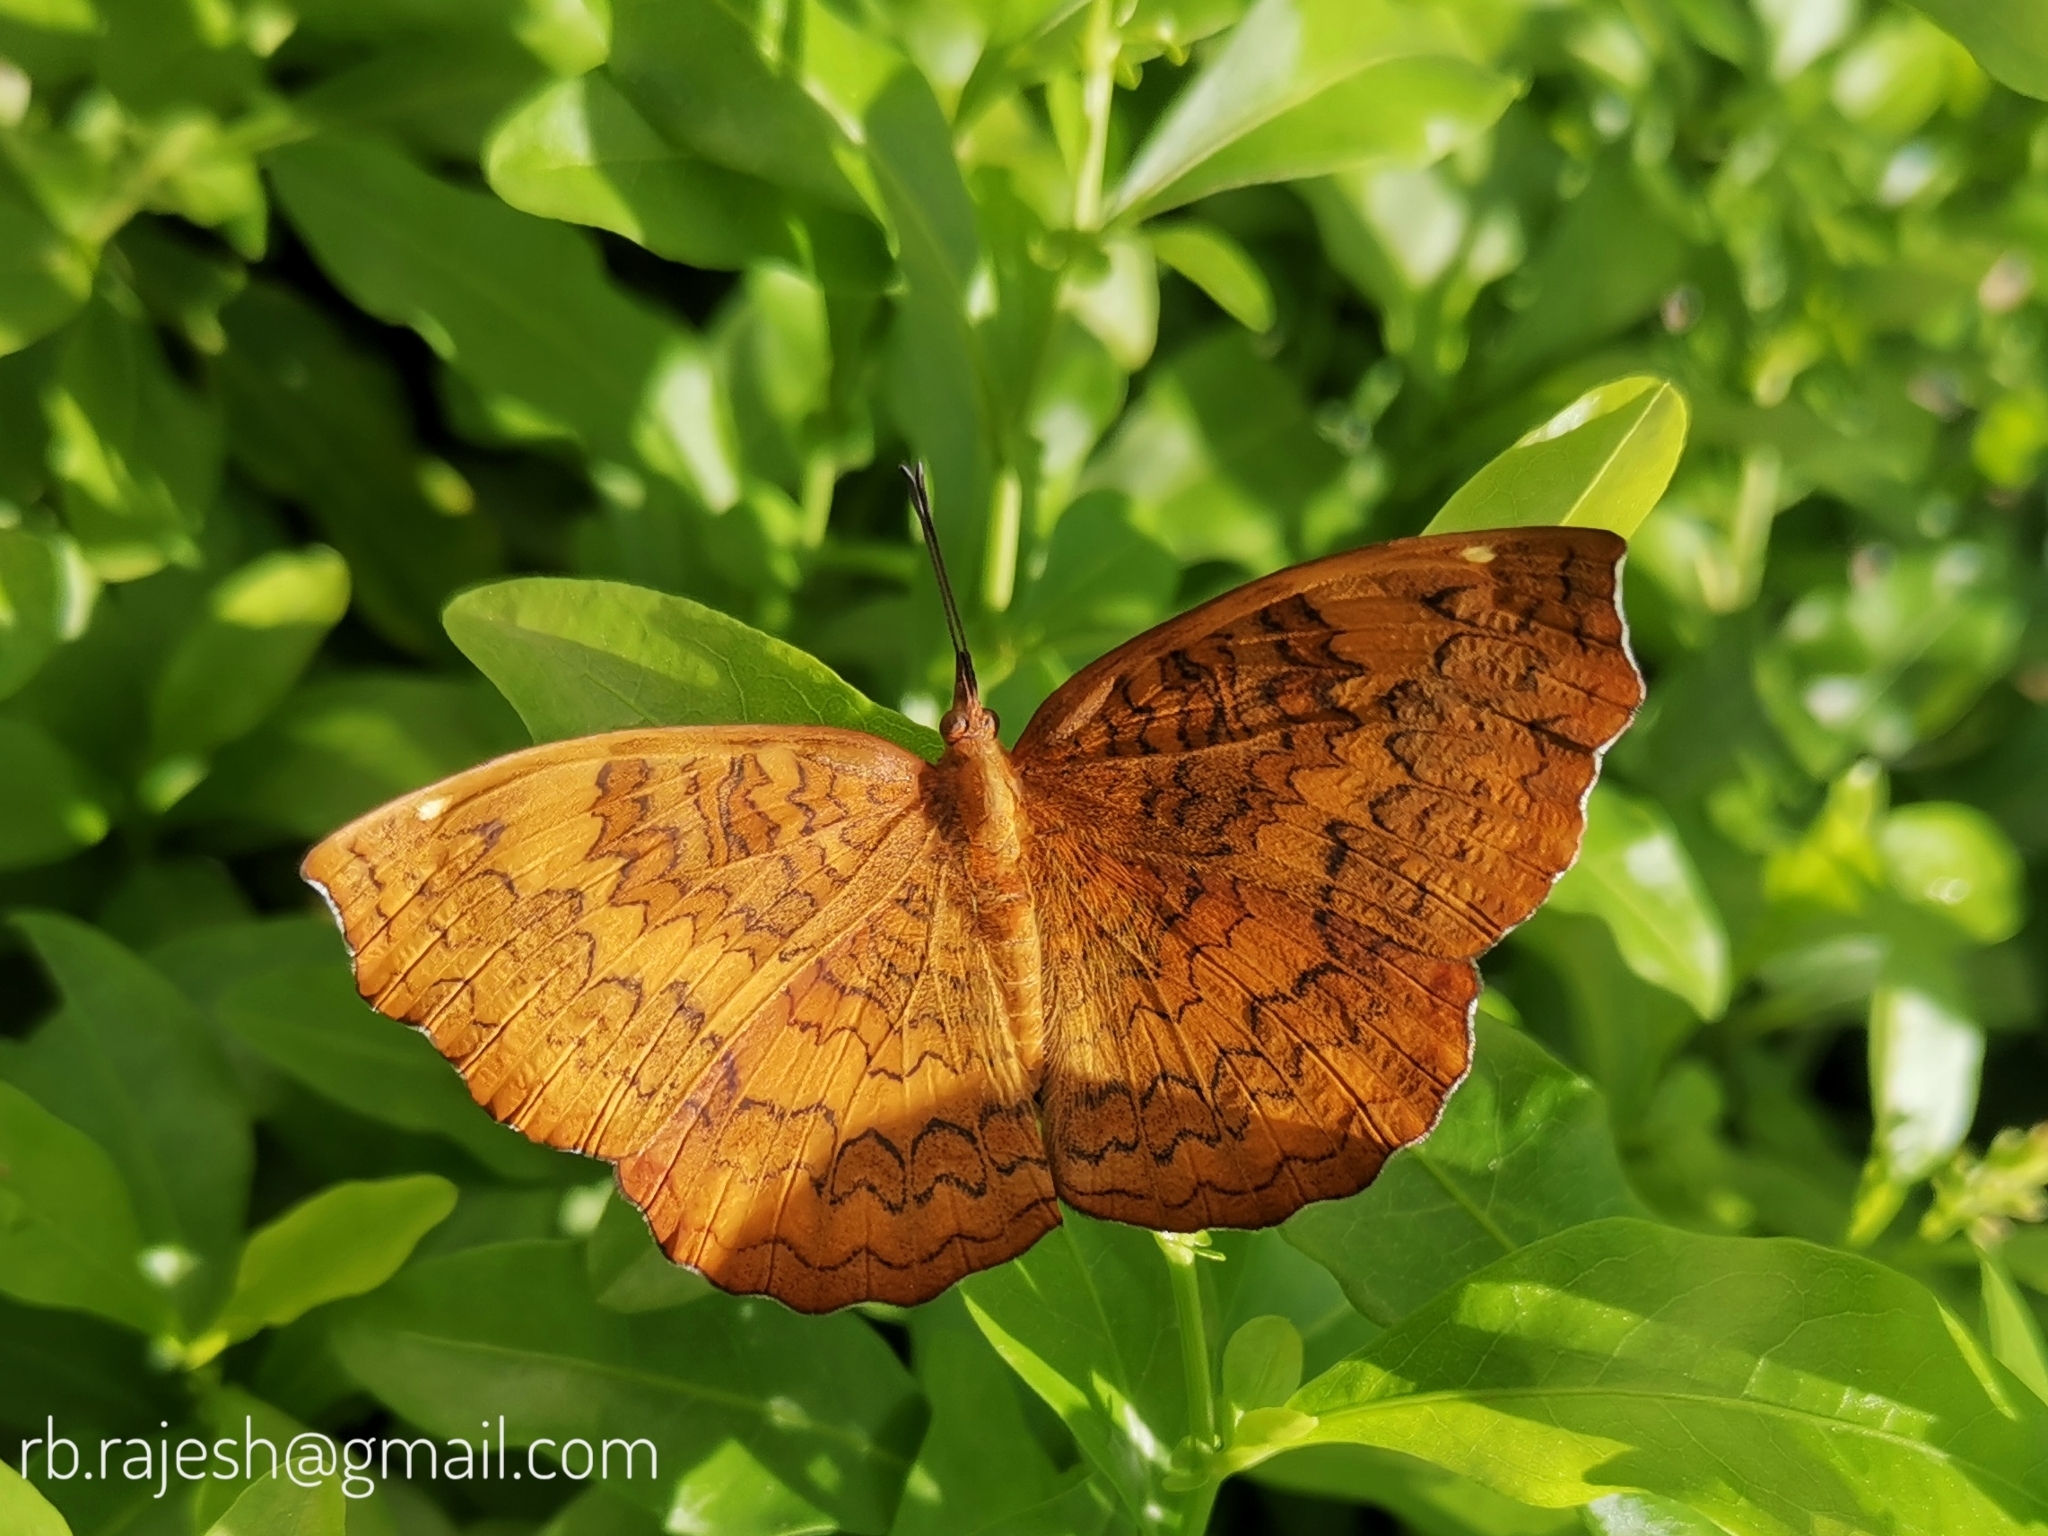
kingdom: Animalia
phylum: Arthropoda
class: Insecta
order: Lepidoptera
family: Nymphalidae
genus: Ariadne
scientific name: Ariadne merione
